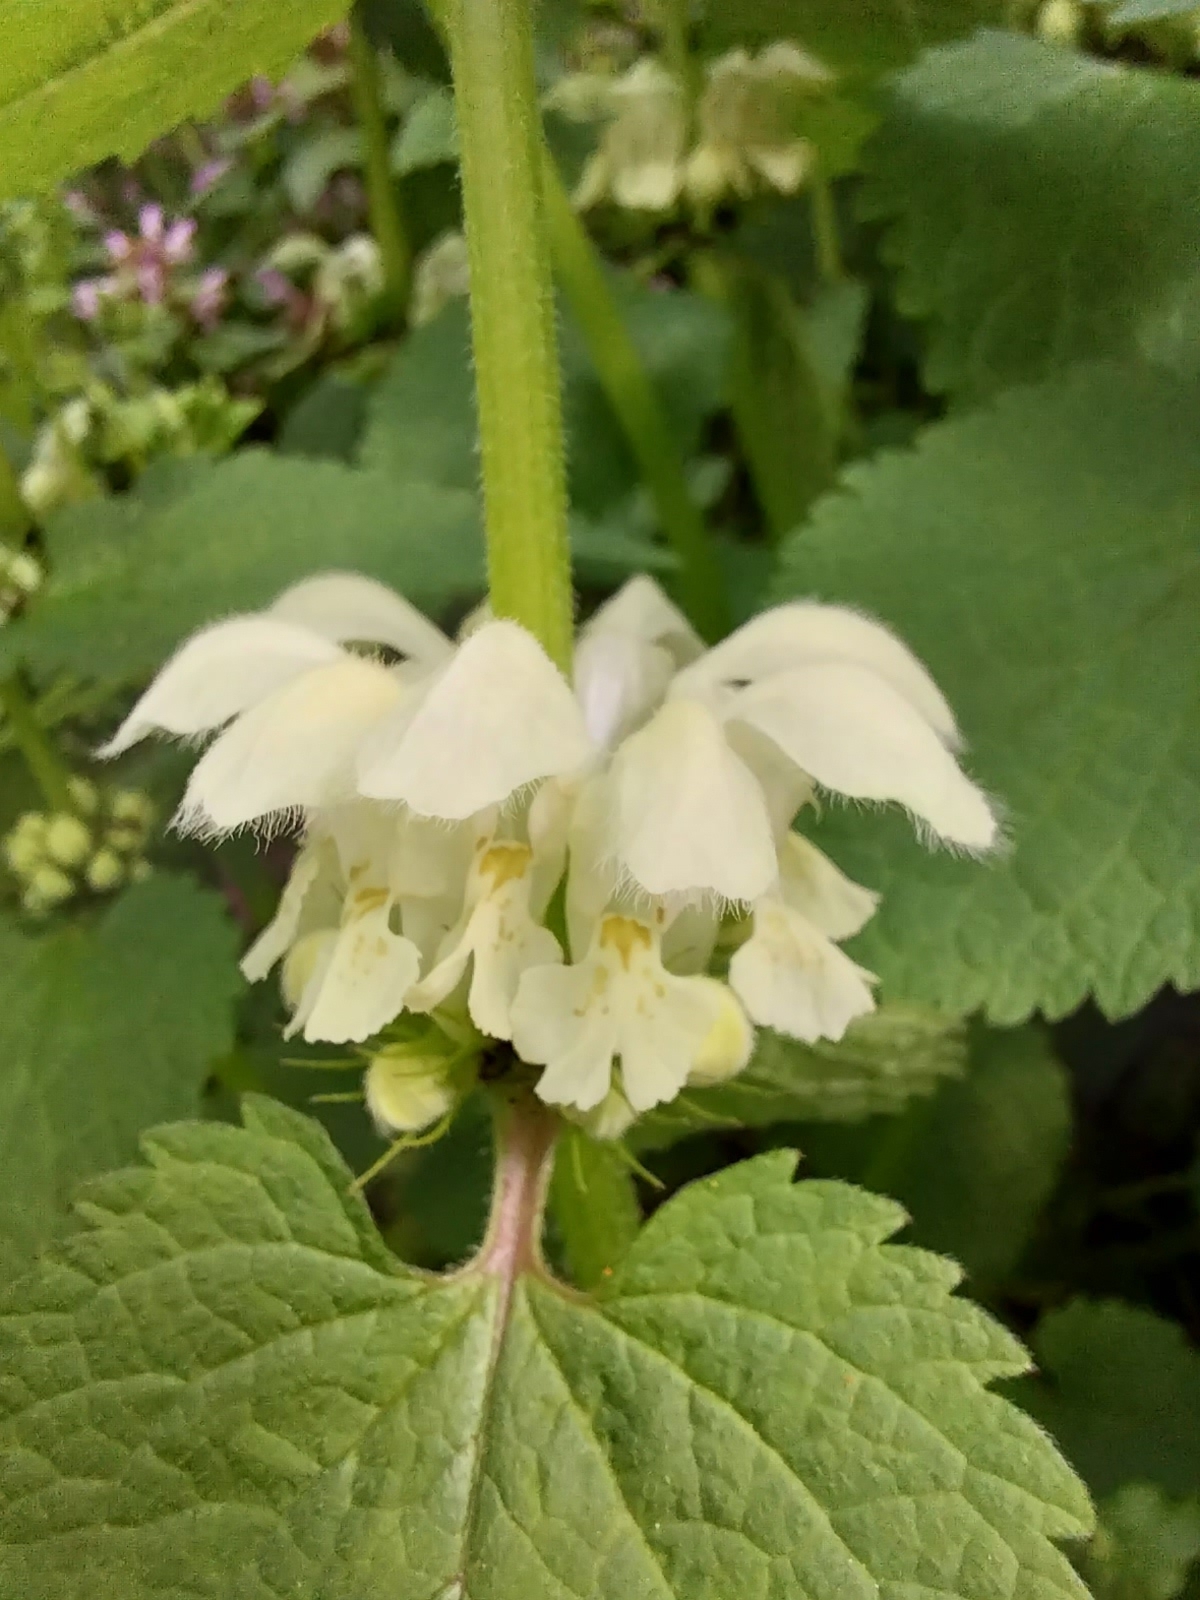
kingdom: Plantae
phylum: Tracheophyta
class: Magnoliopsida
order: Lamiales
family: Lamiaceae
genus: Lamium
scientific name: Lamium album
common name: White dead-nettle
